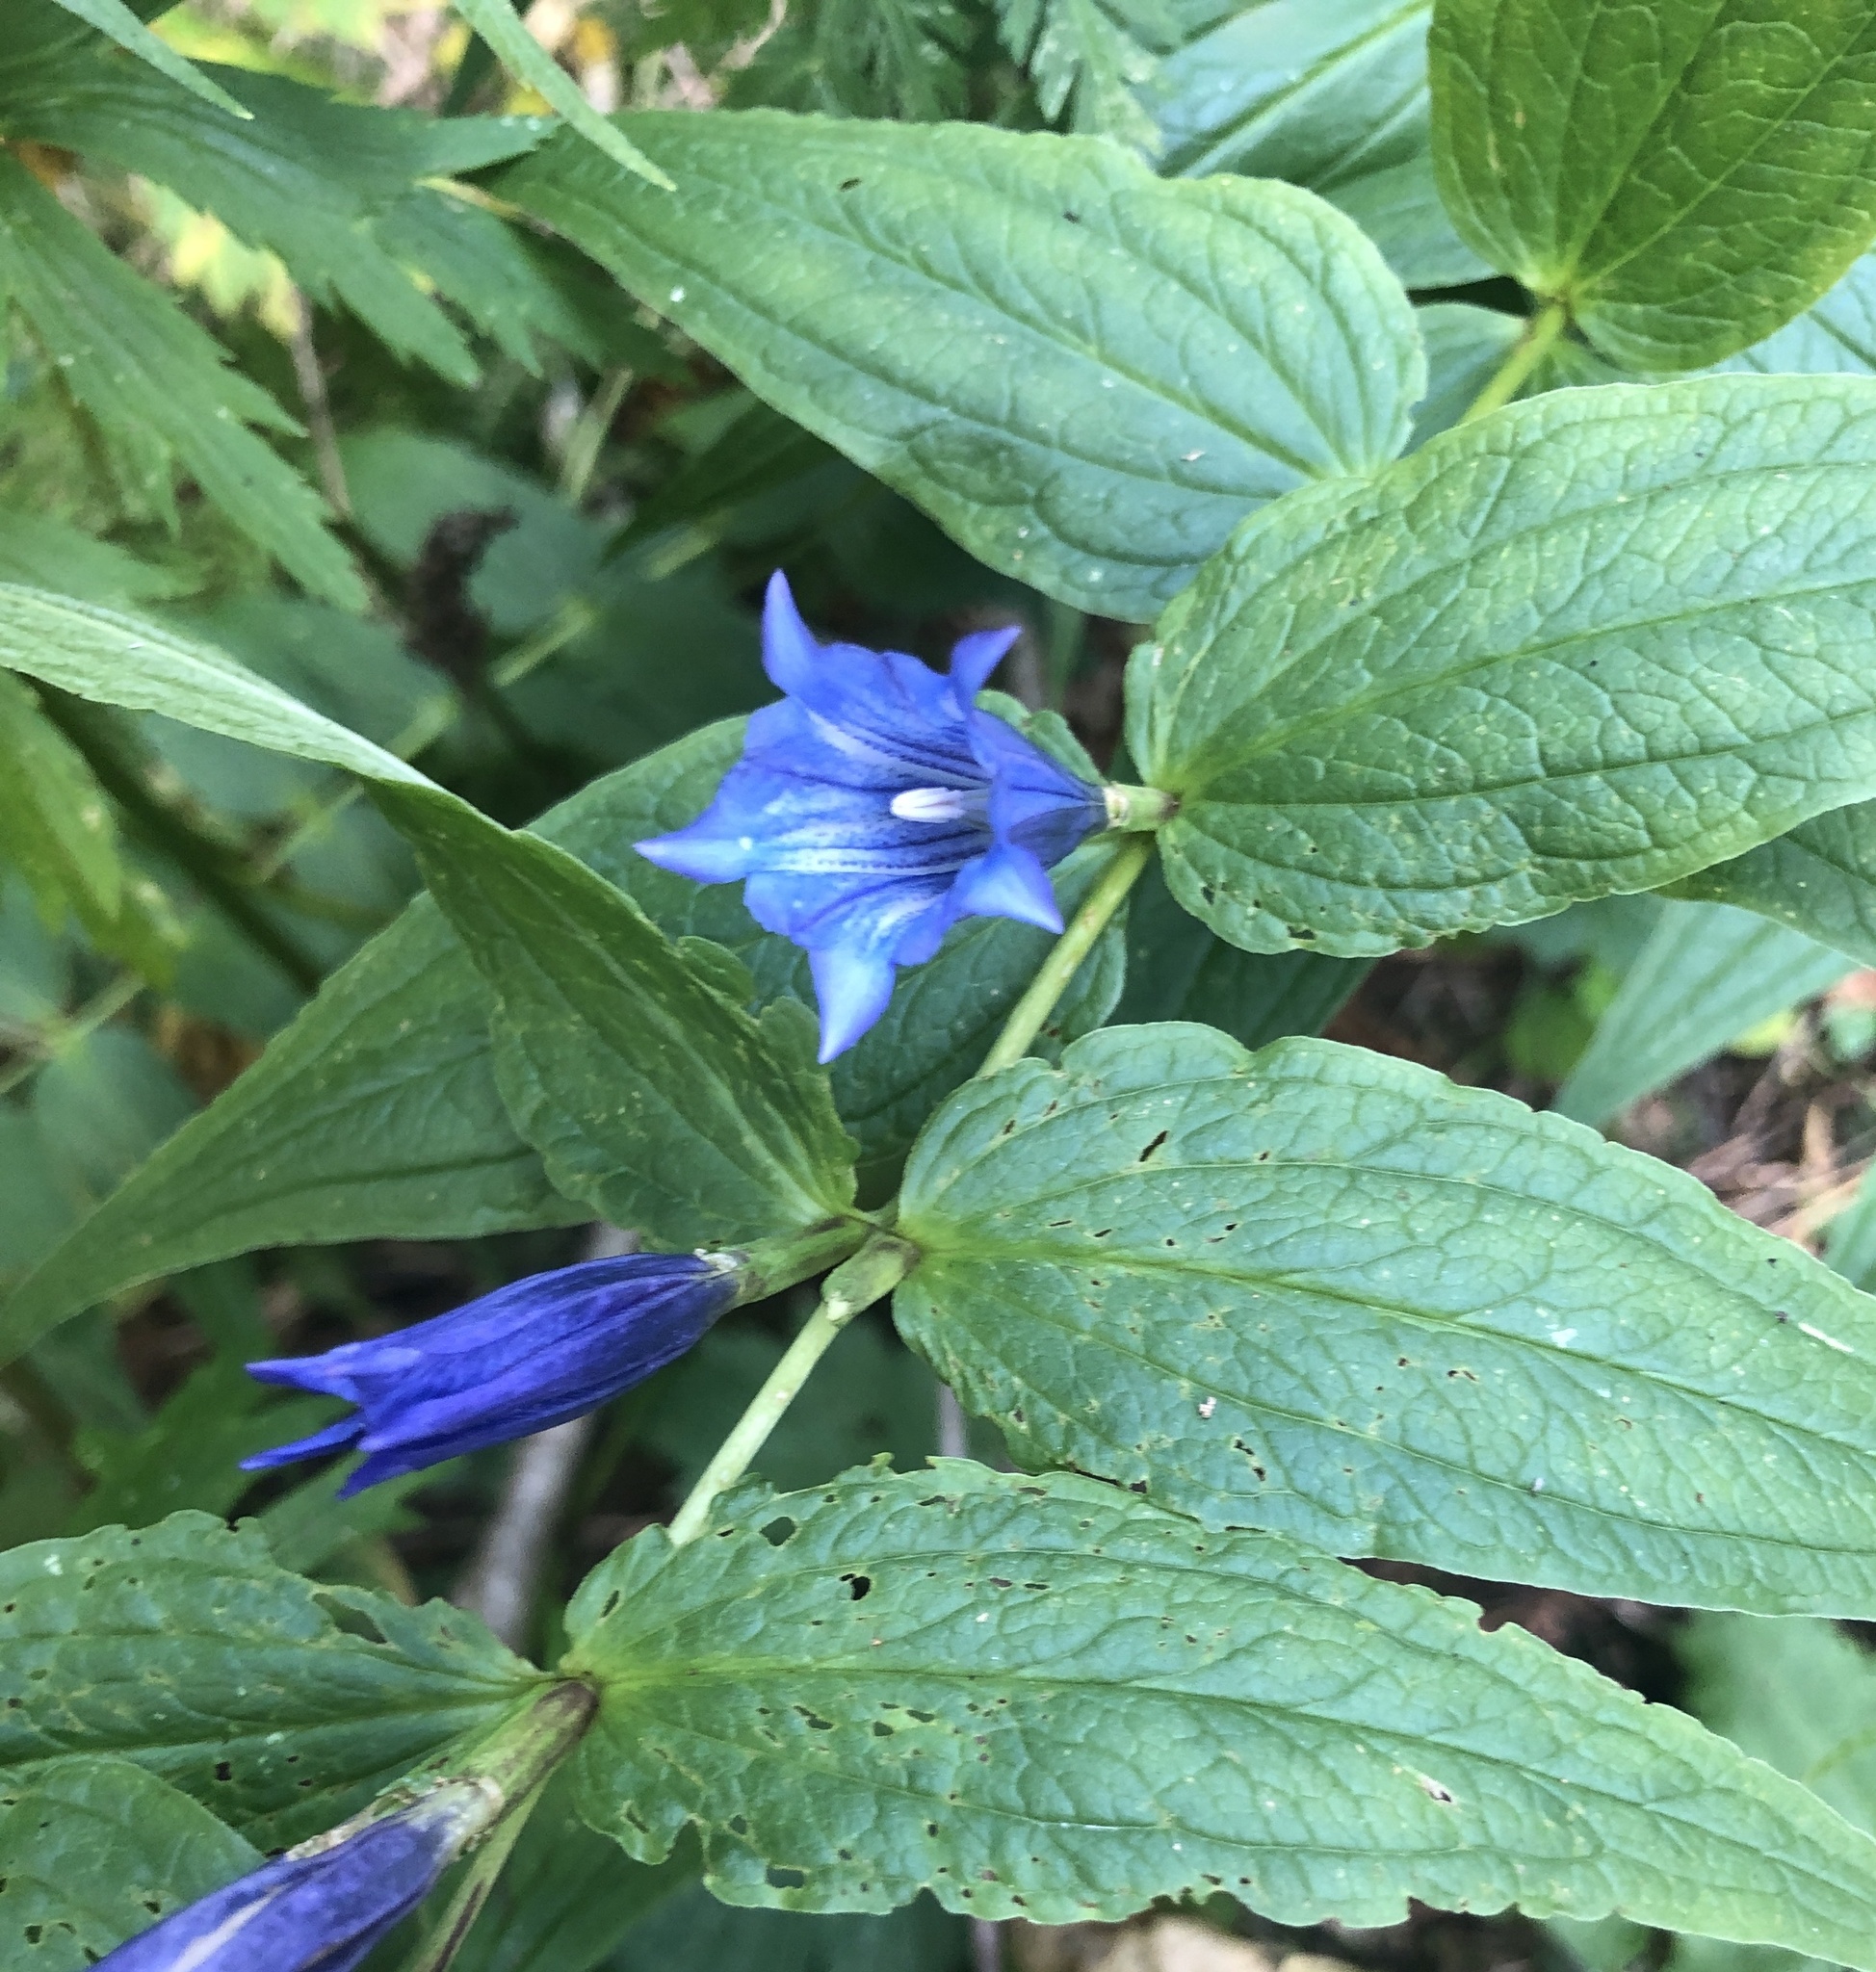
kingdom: Plantae
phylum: Tracheophyta
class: Magnoliopsida
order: Gentianales
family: Gentianaceae
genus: Gentiana
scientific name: Gentiana asclepiadea
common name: Willow gentian
